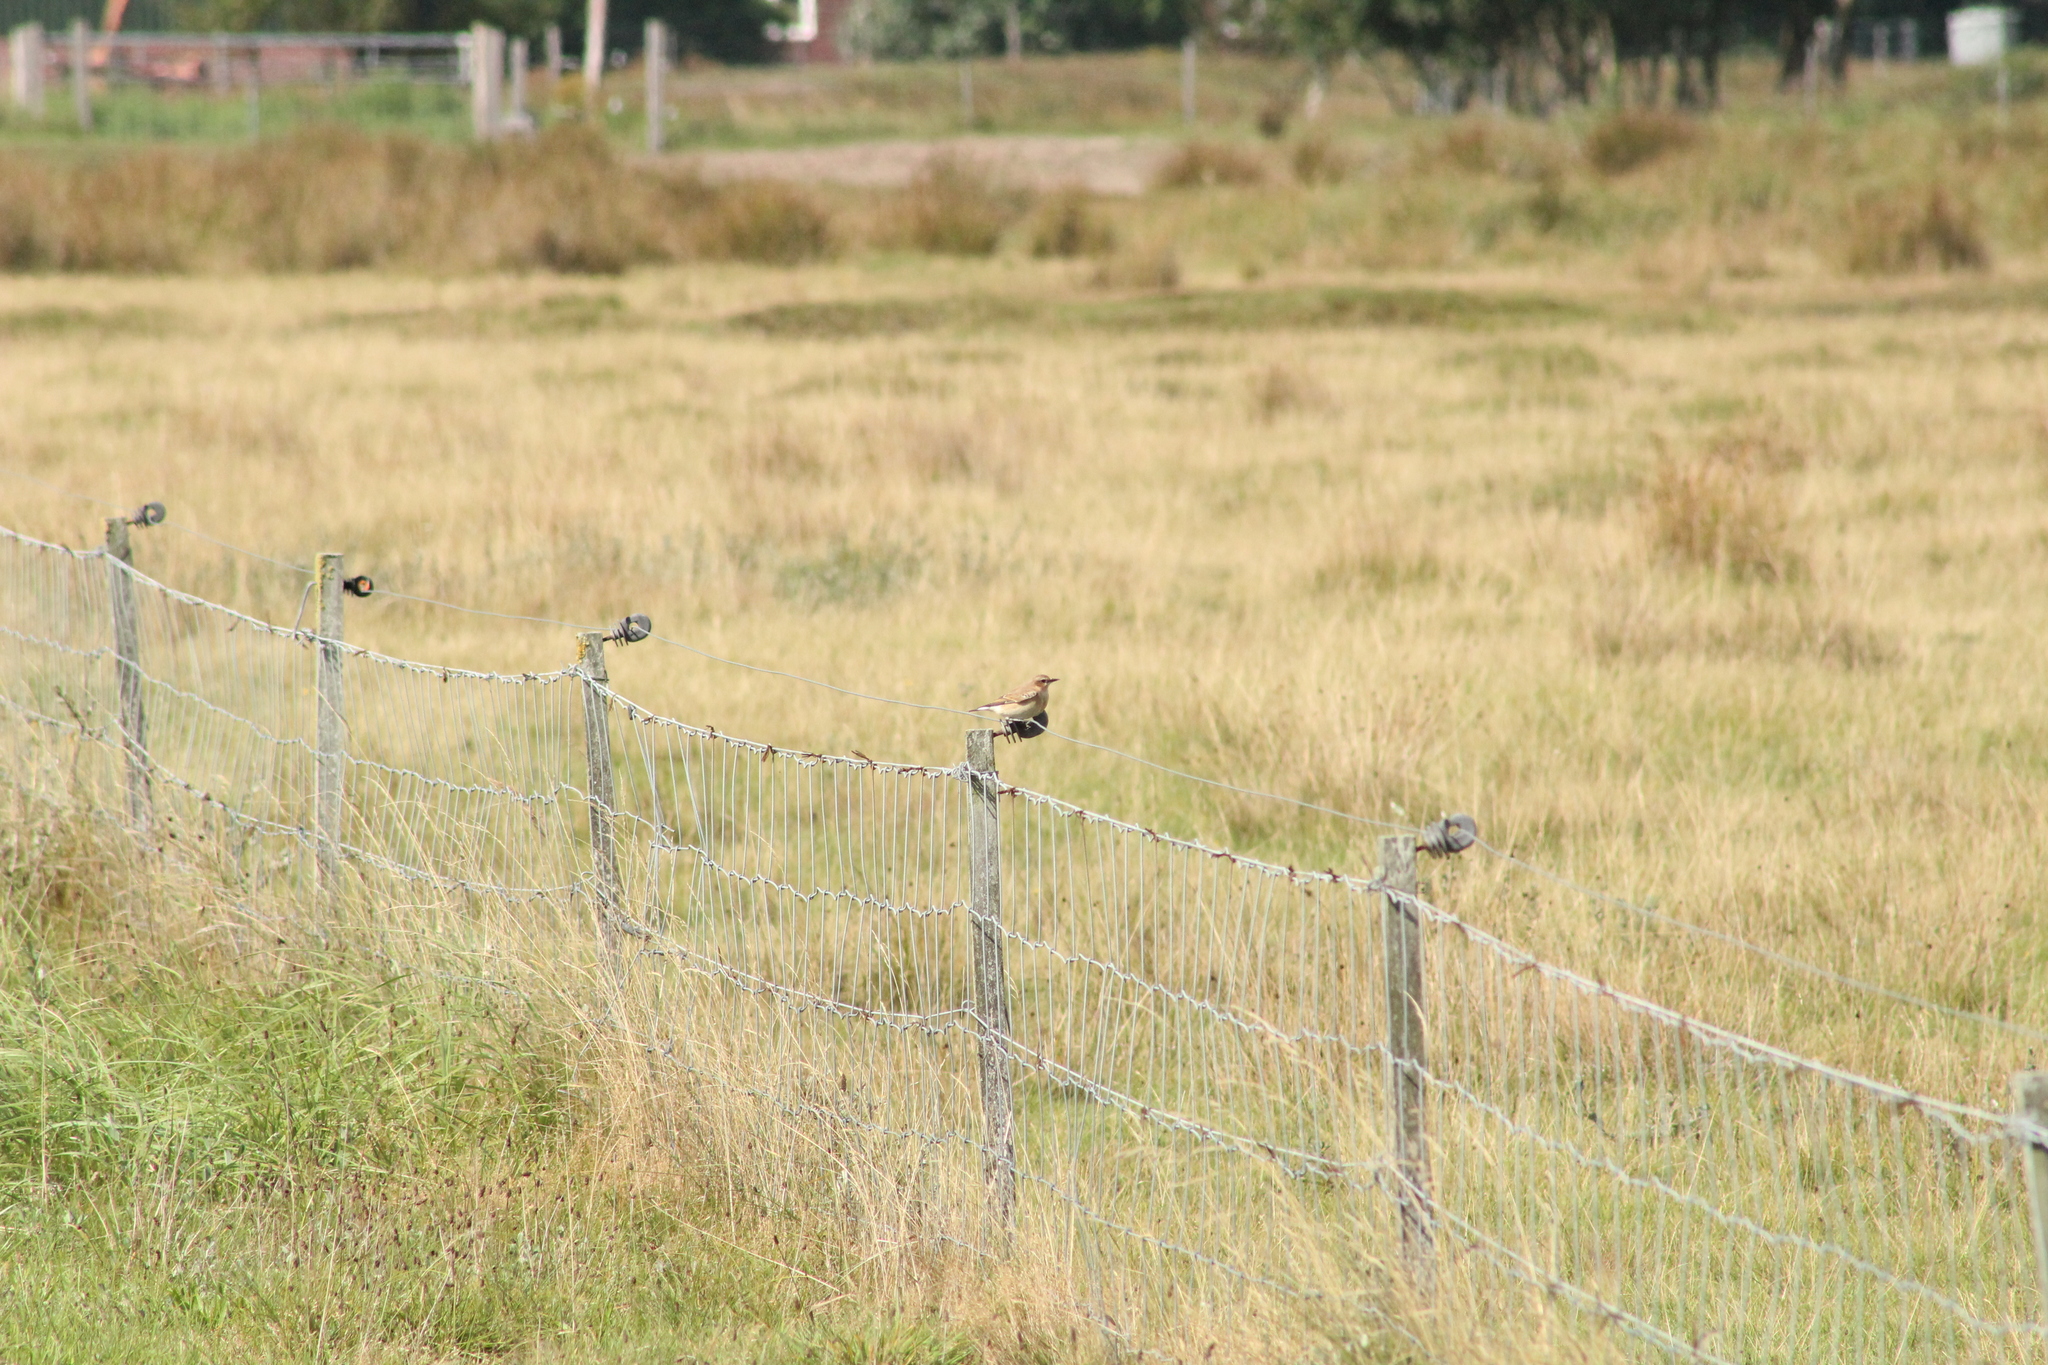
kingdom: Animalia
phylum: Chordata
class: Aves
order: Passeriformes
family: Muscicapidae
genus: Oenanthe
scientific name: Oenanthe oenanthe
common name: Northern wheatear
